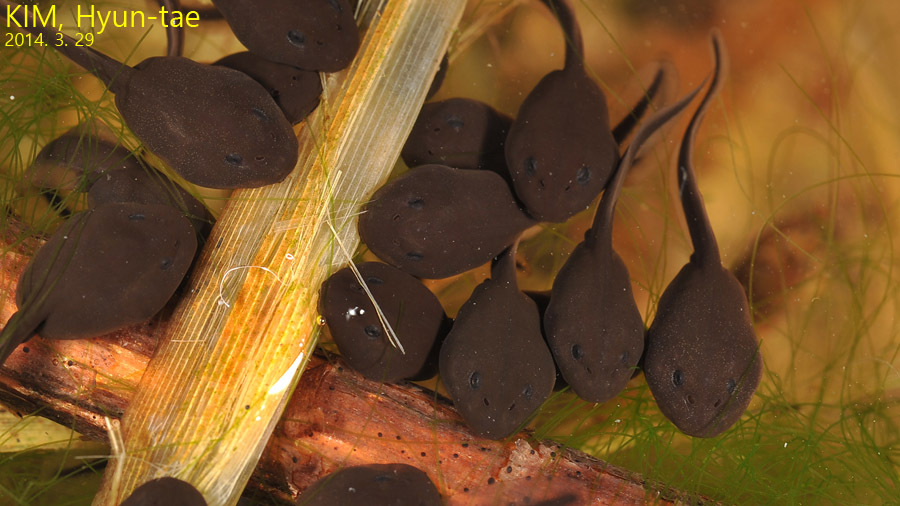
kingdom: Animalia
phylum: Chordata
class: Amphibia
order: Anura
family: Bufonidae
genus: Bufo
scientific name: Bufo gargarizans
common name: Asiatic toad
